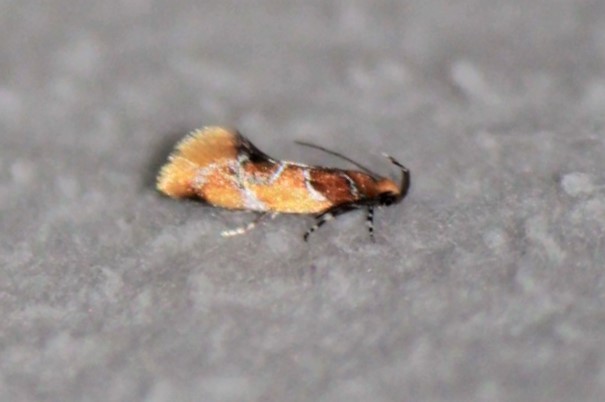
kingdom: Animalia
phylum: Arthropoda
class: Insecta
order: Lepidoptera
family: Oecophoridae
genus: Callima
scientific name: Callima argenticinctella
